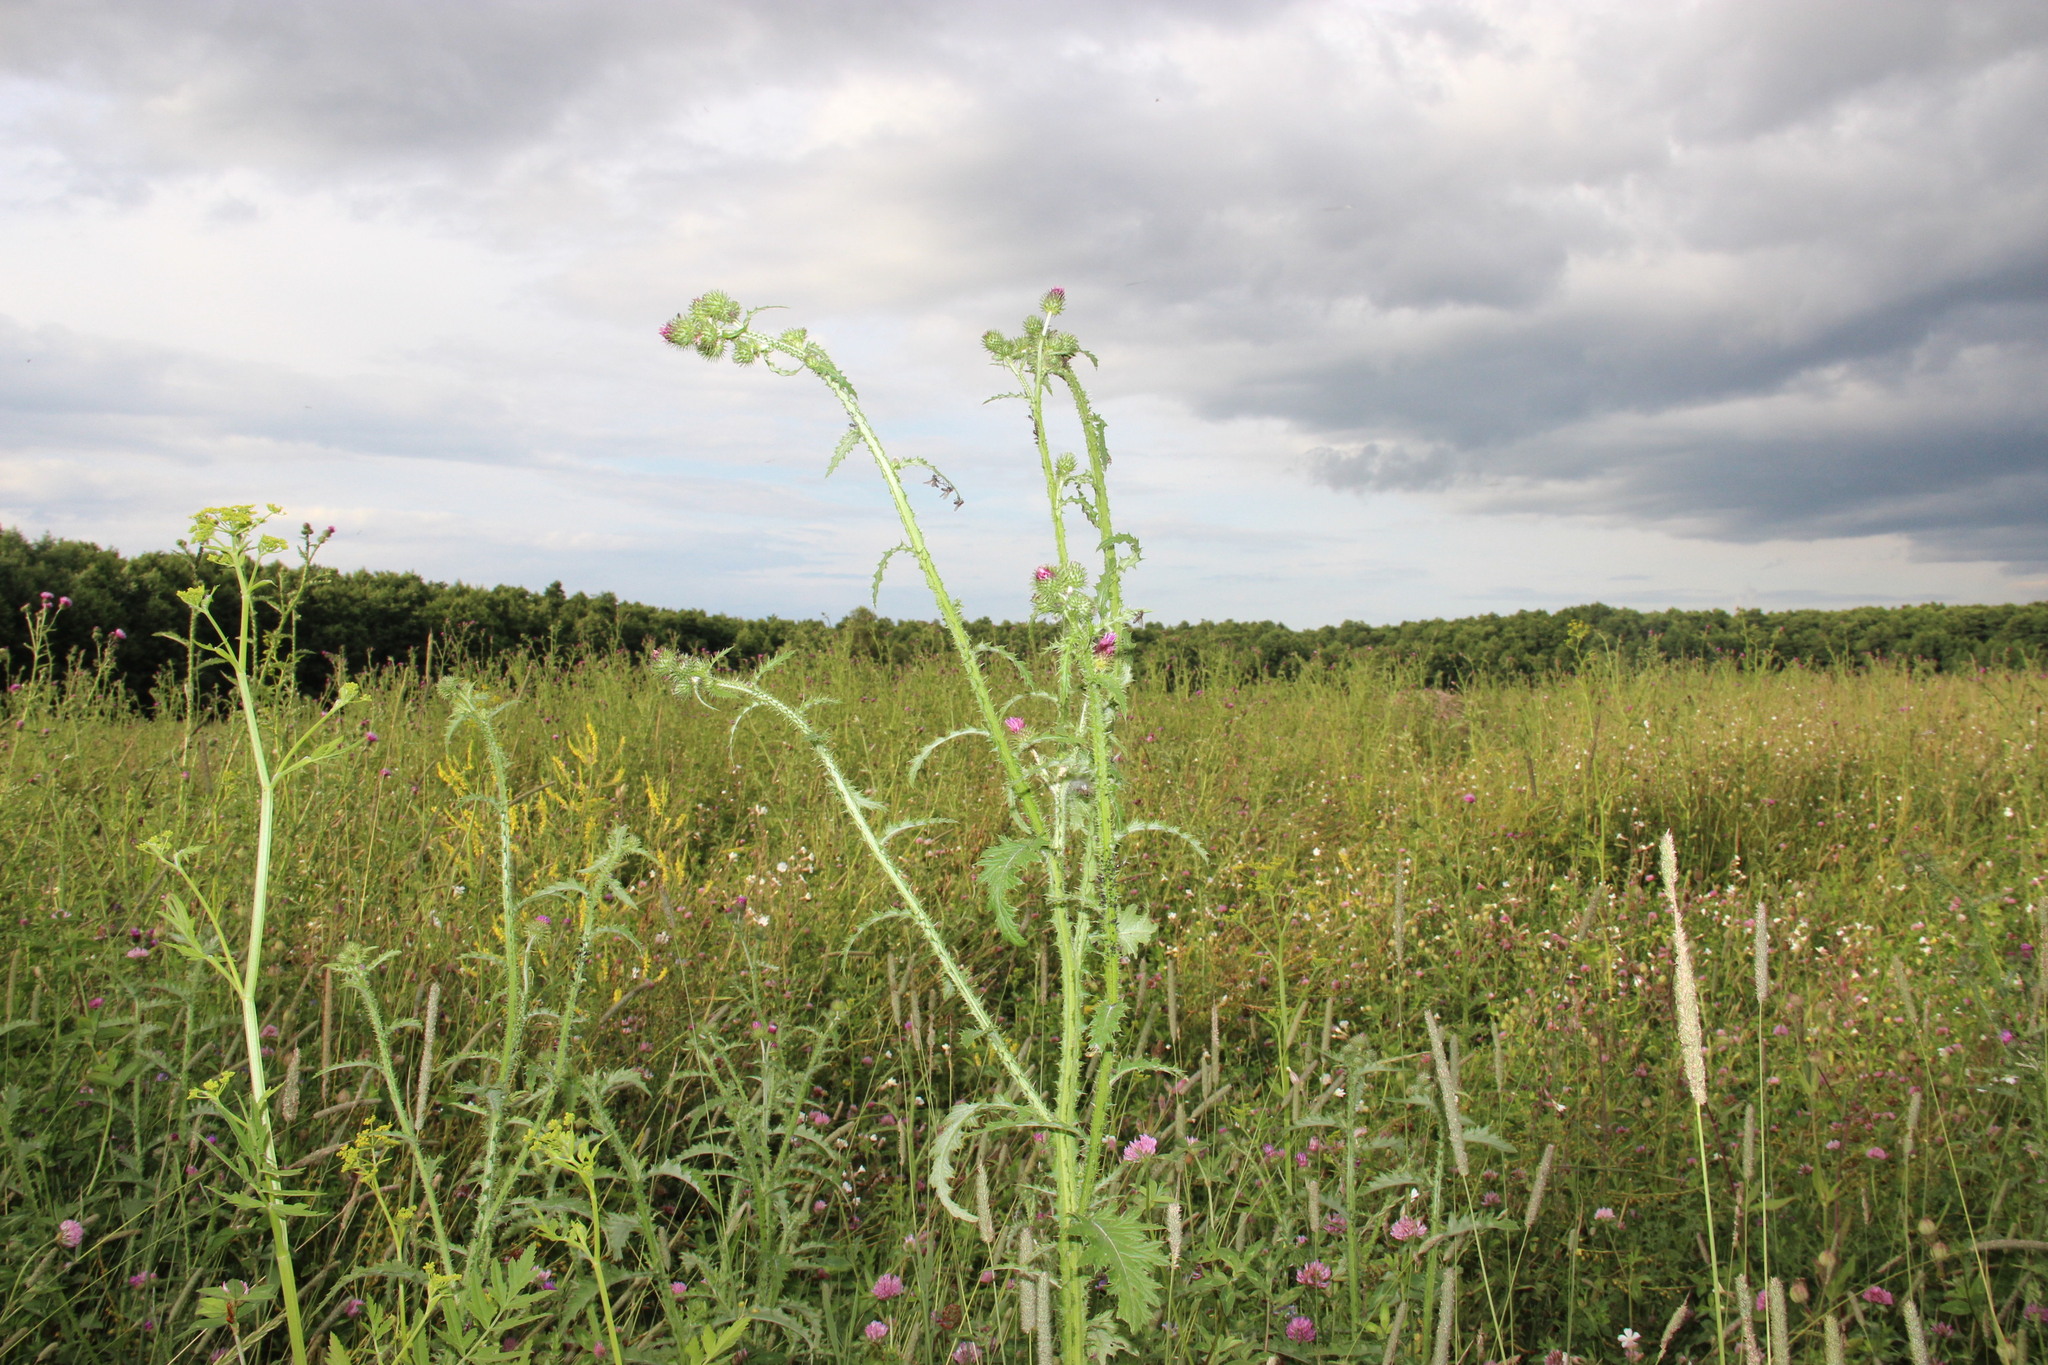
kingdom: Plantae
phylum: Tracheophyta
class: Magnoliopsida
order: Asterales
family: Asteraceae
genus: Carduus
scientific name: Carduus crispus
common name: Welted thistle
